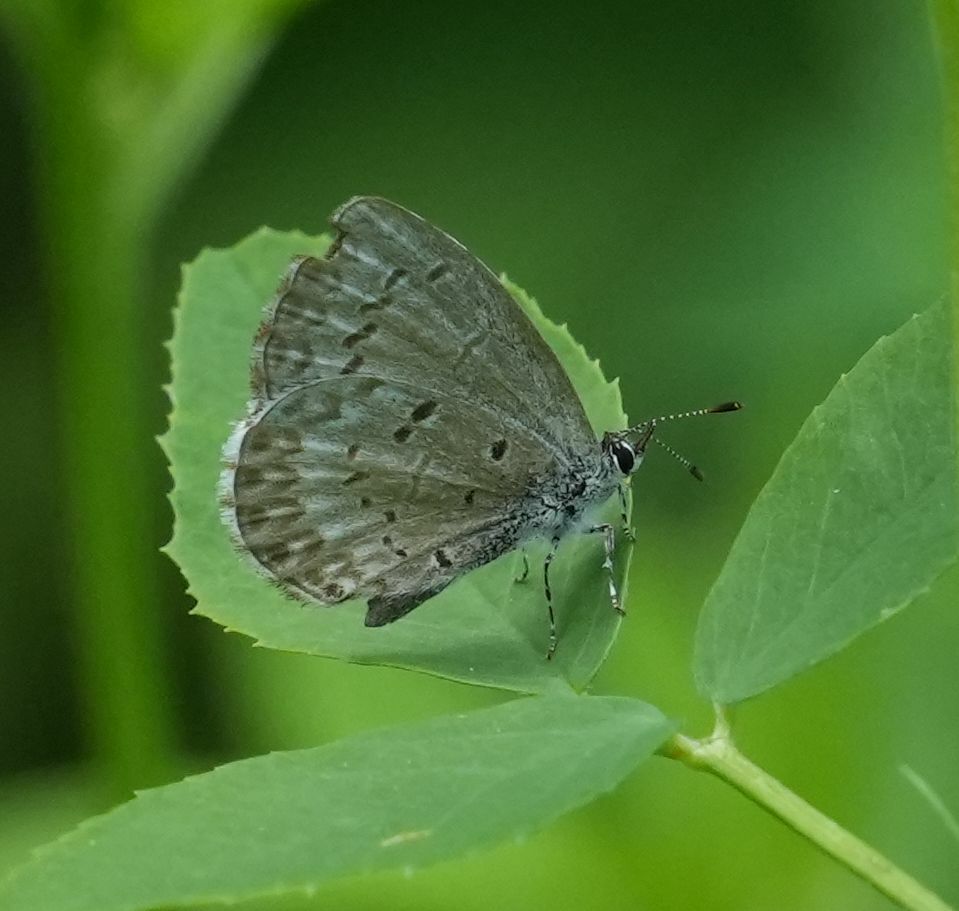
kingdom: Animalia
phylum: Arthropoda
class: Insecta
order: Lepidoptera
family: Lycaenidae
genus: Celastrina
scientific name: Celastrina lucia
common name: Lucia azure
